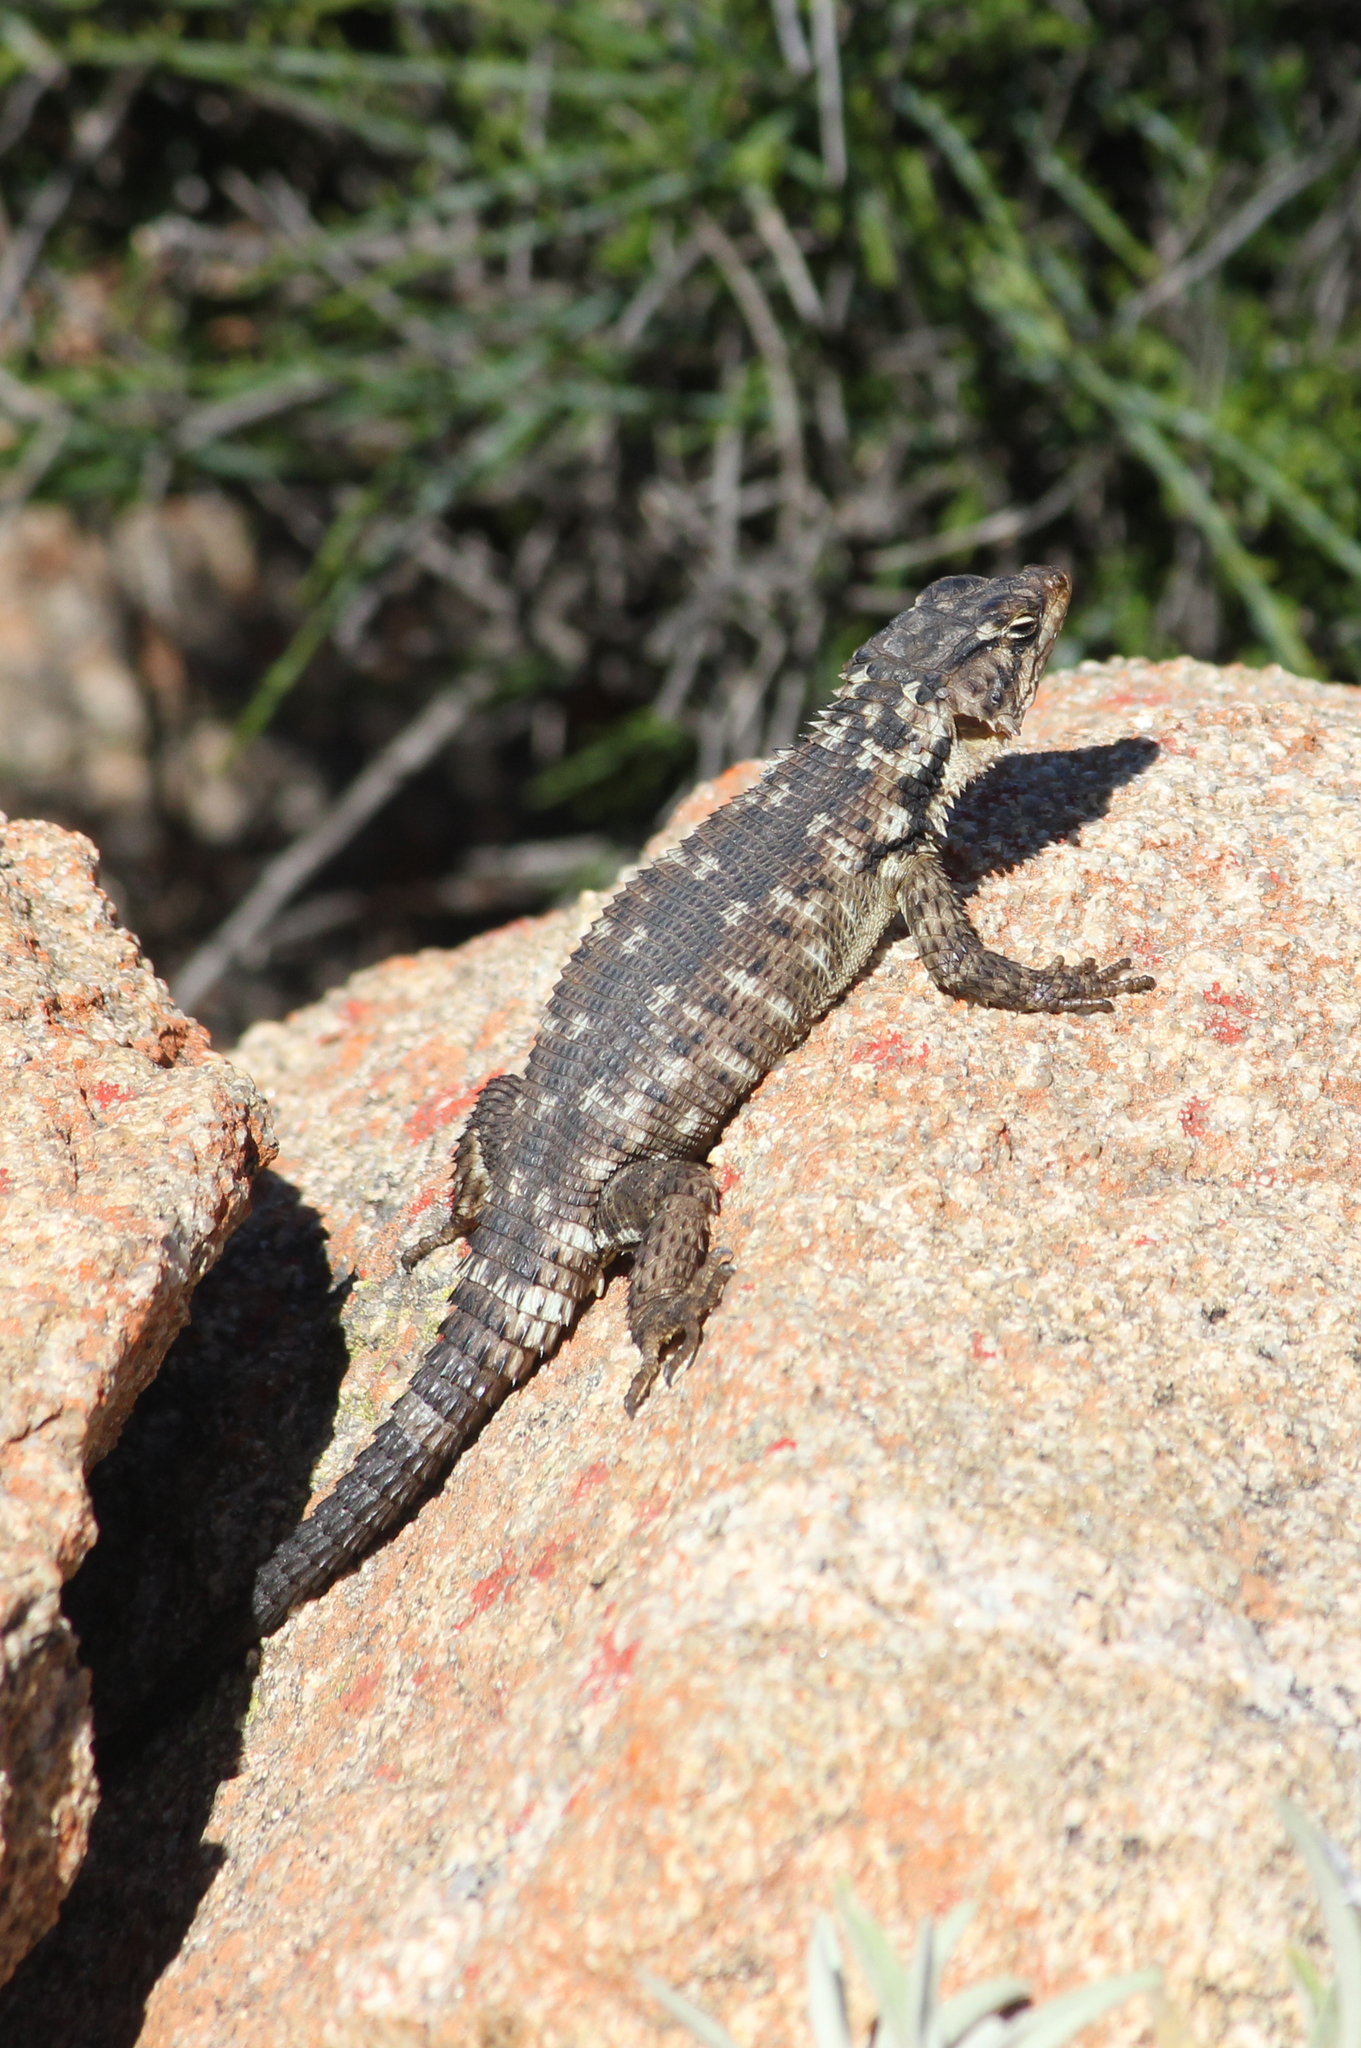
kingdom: Animalia
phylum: Chordata
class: Squamata
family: Cordylidae
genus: Karusasaurus
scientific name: Karusasaurus polyzonus
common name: Karoo girdled lizard
